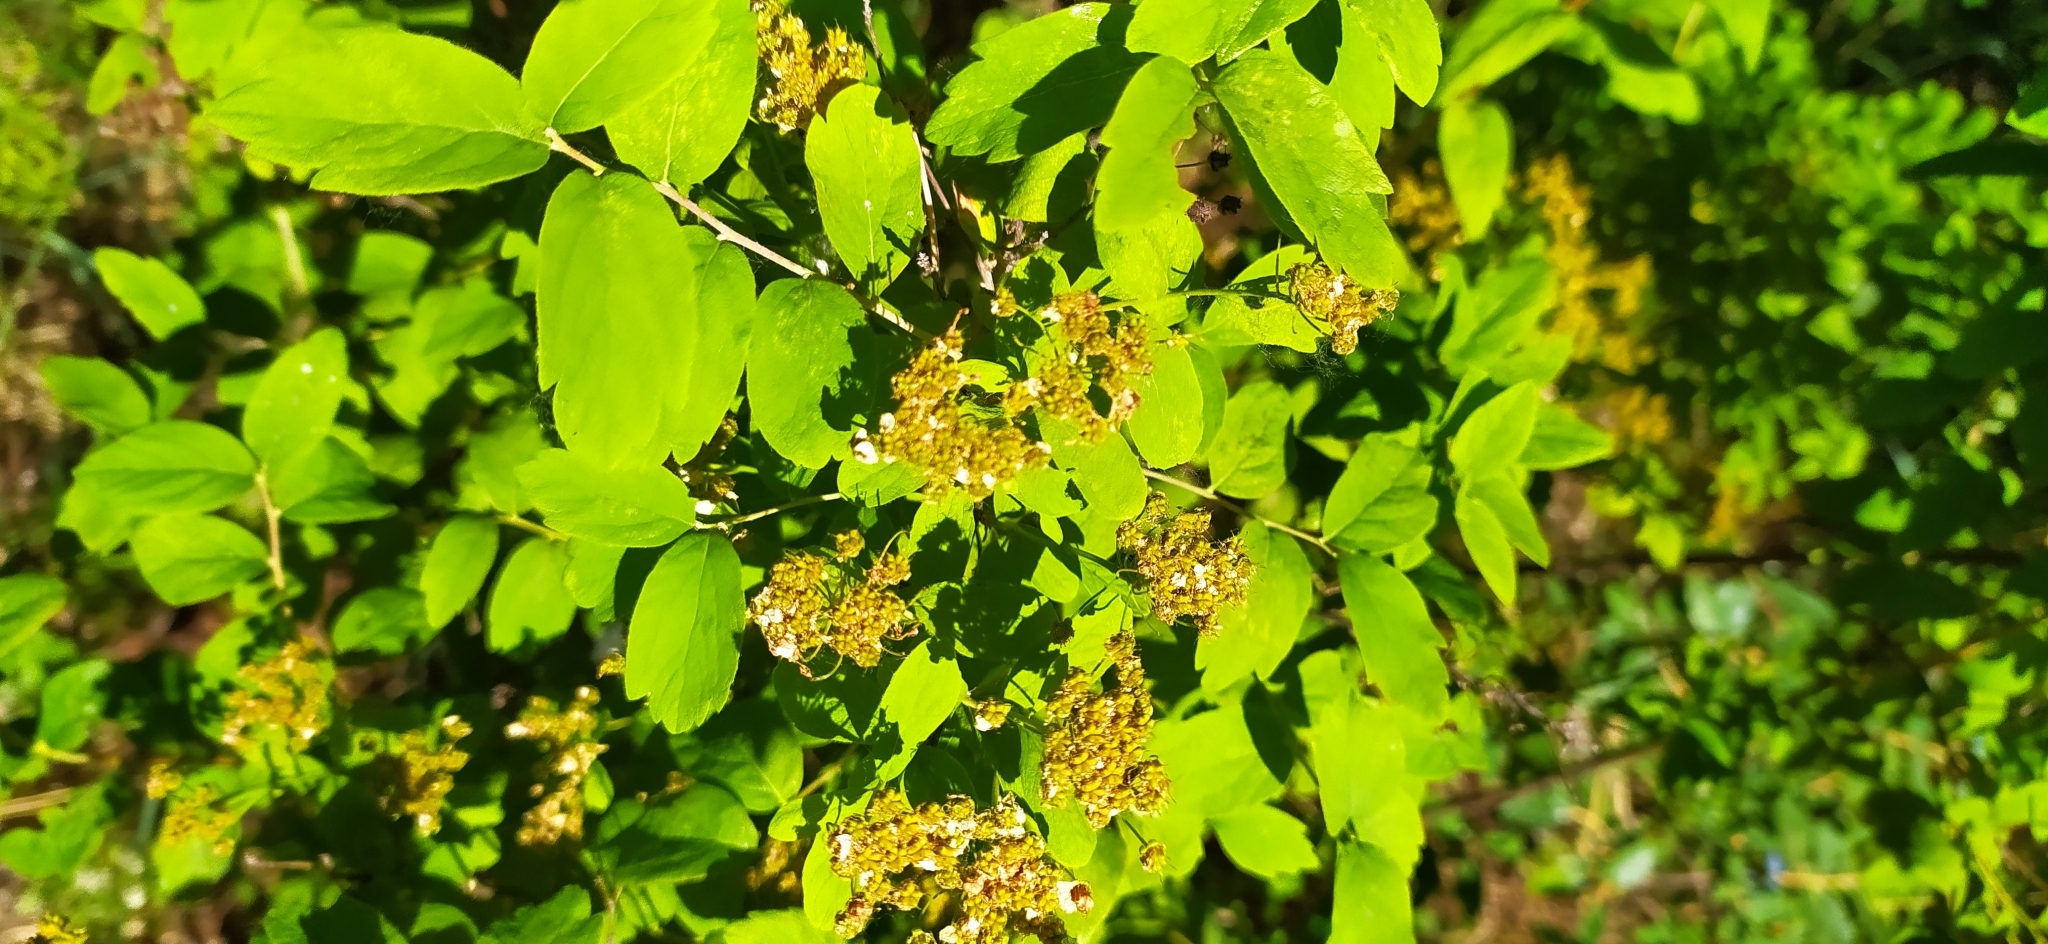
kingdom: Plantae
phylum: Tracheophyta
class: Magnoliopsida
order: Rosales
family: Rosaceae
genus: Spiraea
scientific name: Spiraea media
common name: Russian spiraea
